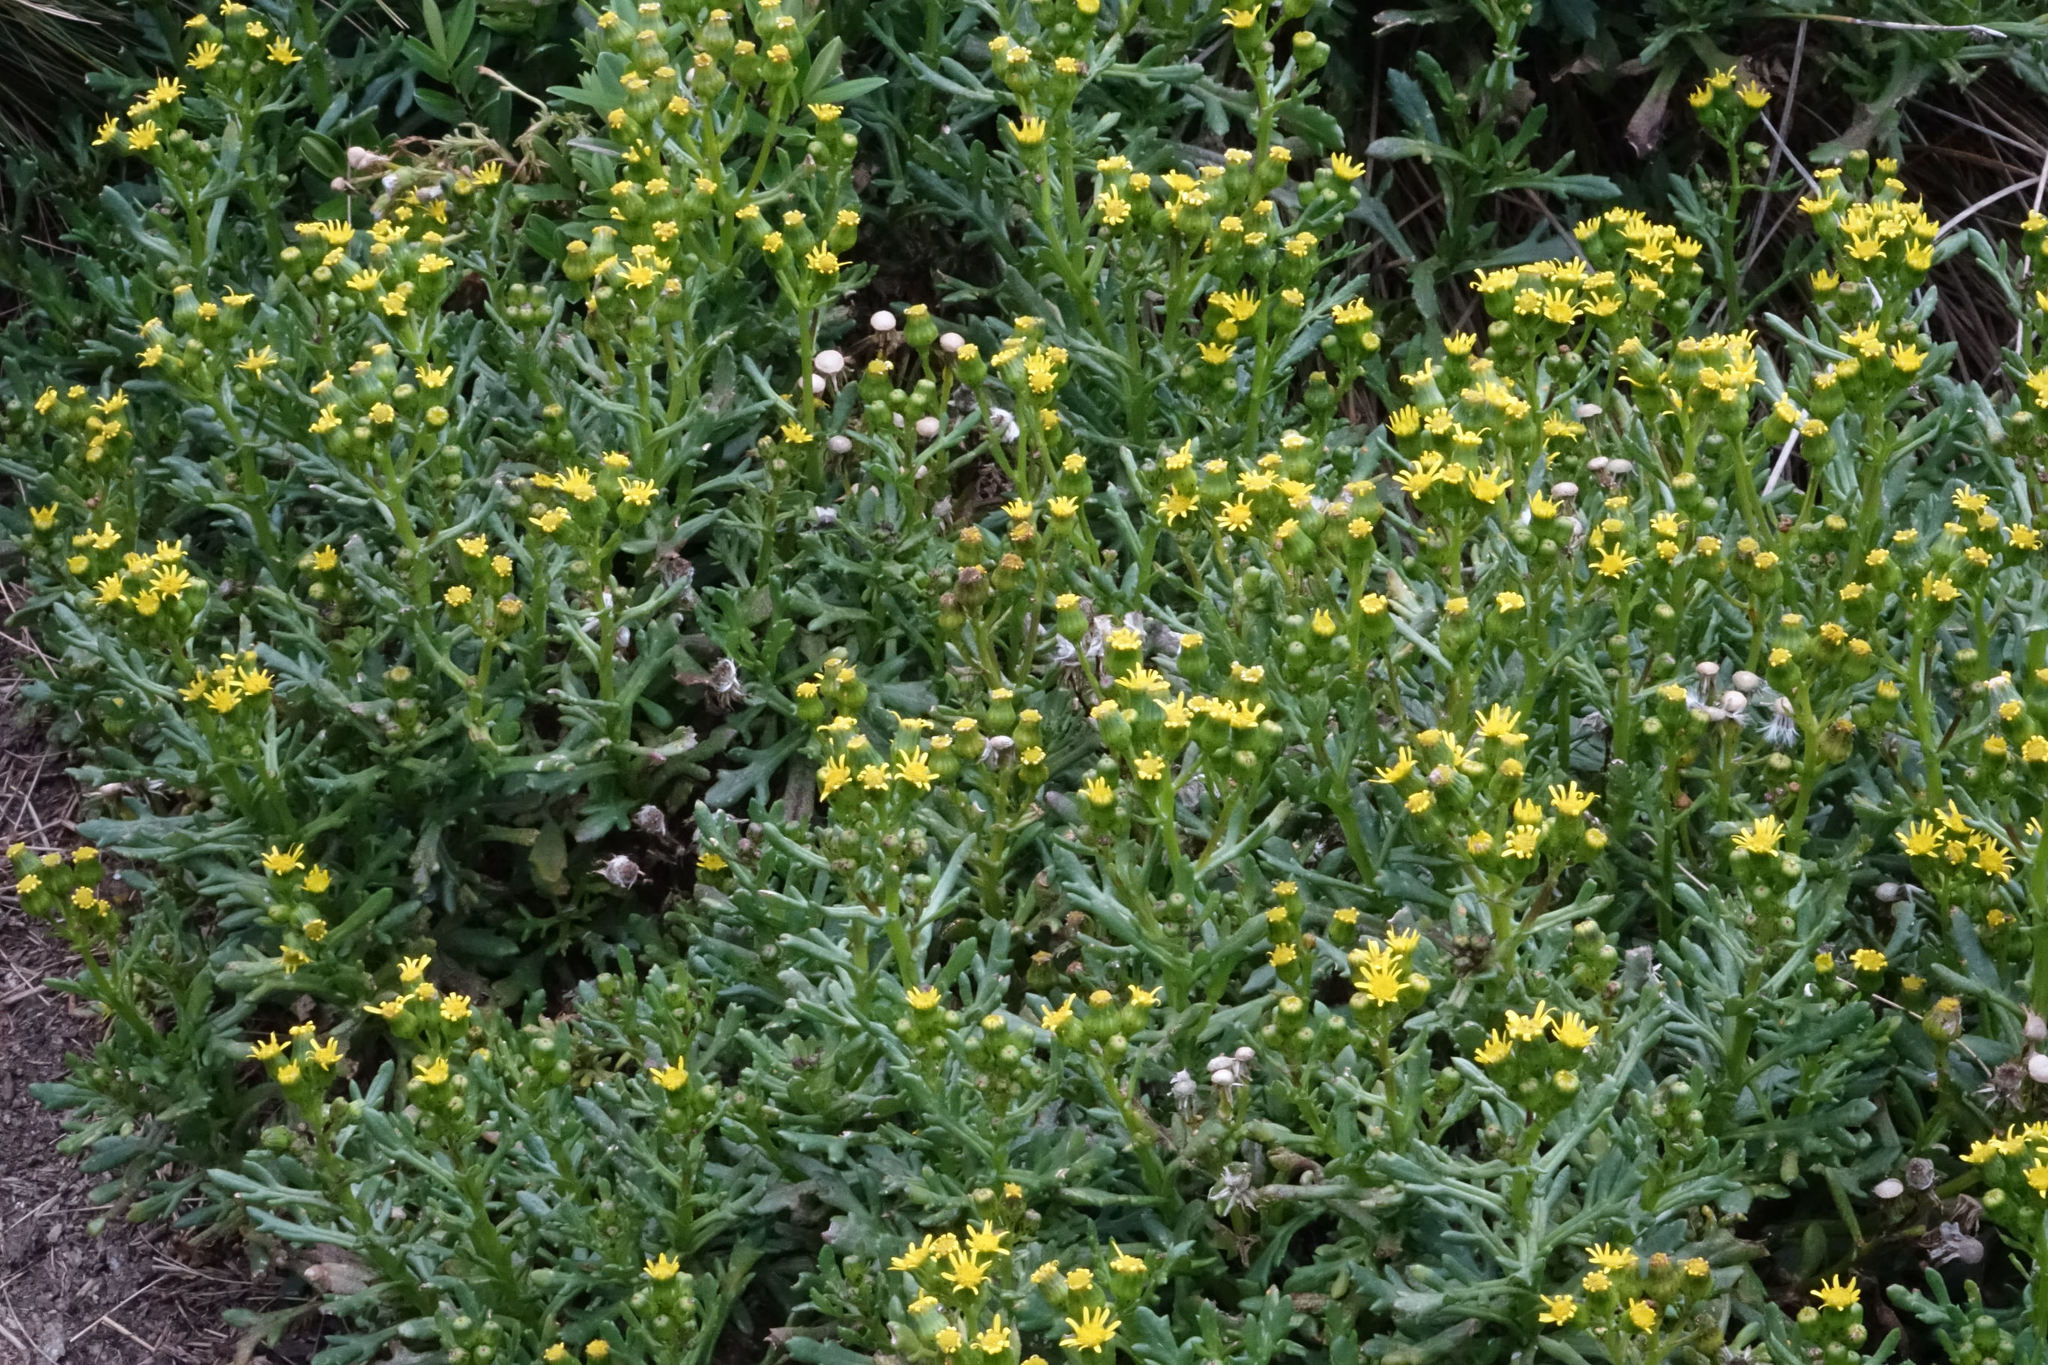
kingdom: Plantae
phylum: Tracheophyta
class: Magnoliopsida
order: Asterales
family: Asteraceae
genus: Senecio
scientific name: Senecio carnosulus
